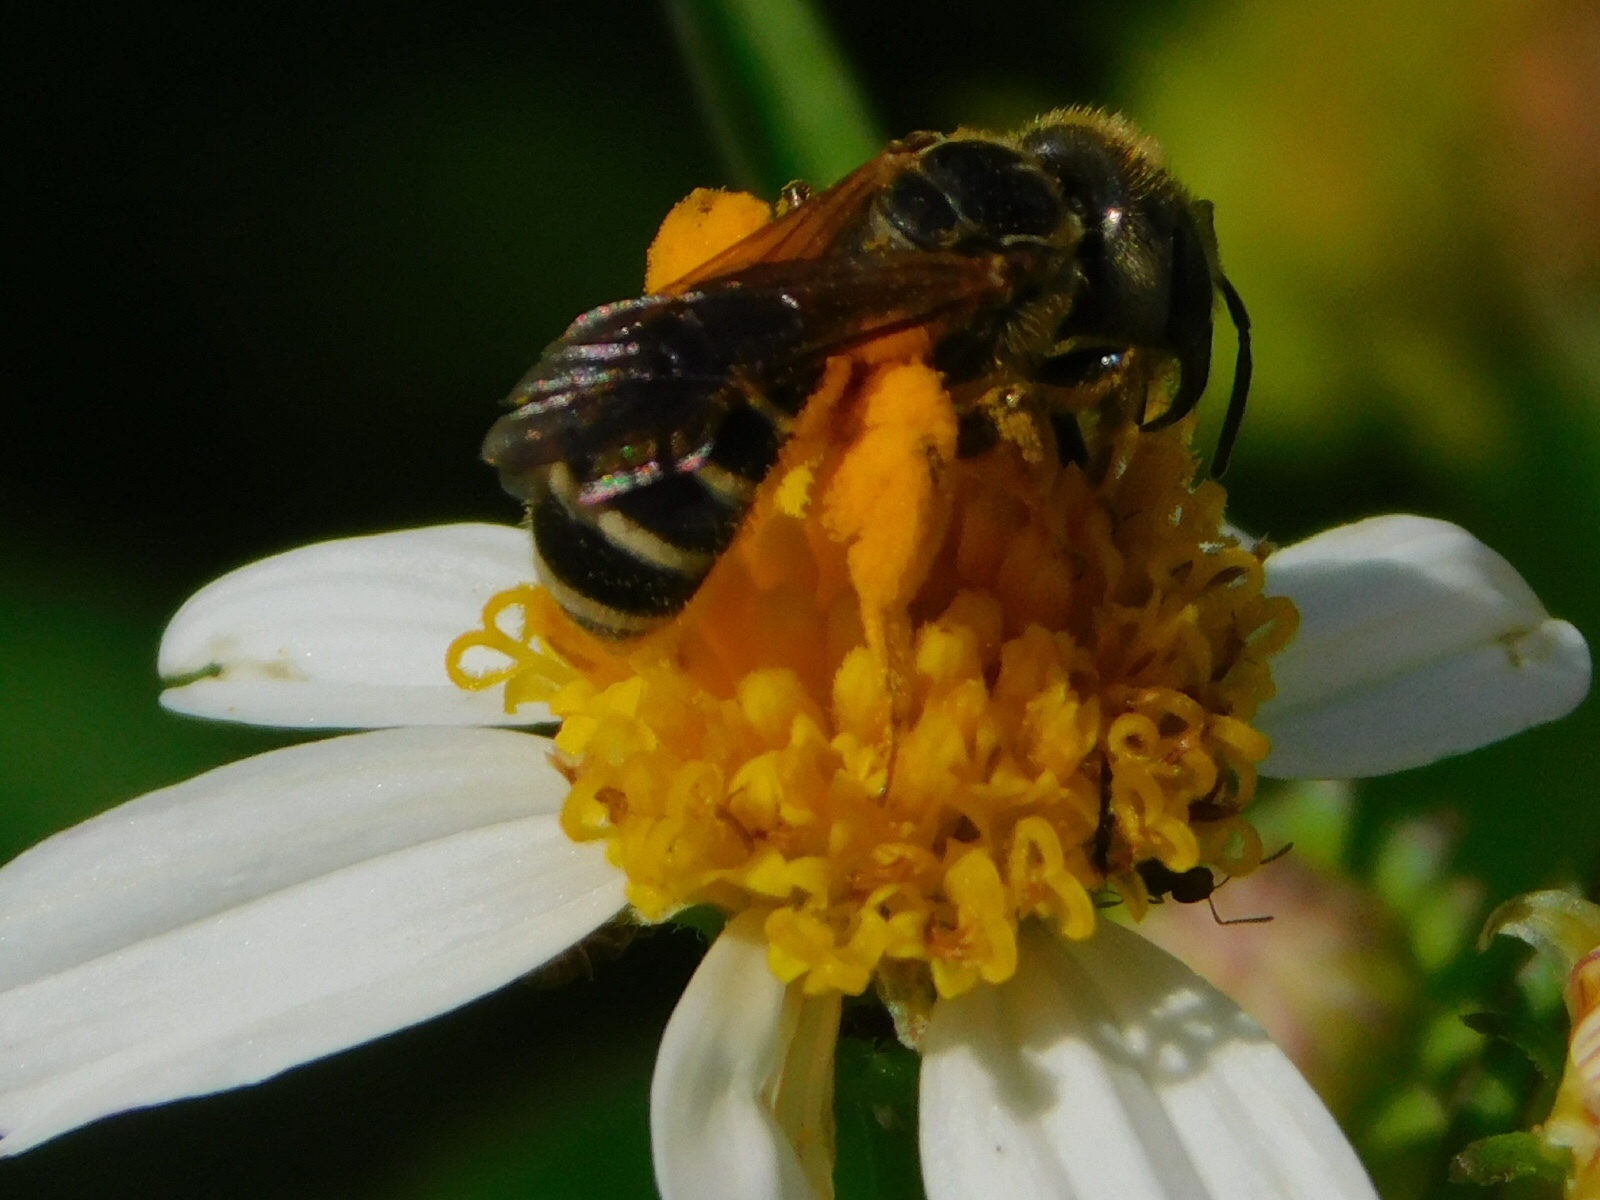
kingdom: Animalia
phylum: Arthropoda
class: Insecta
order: Hymenoptera
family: Halictidae
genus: Halictus
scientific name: Halictus poeyi
